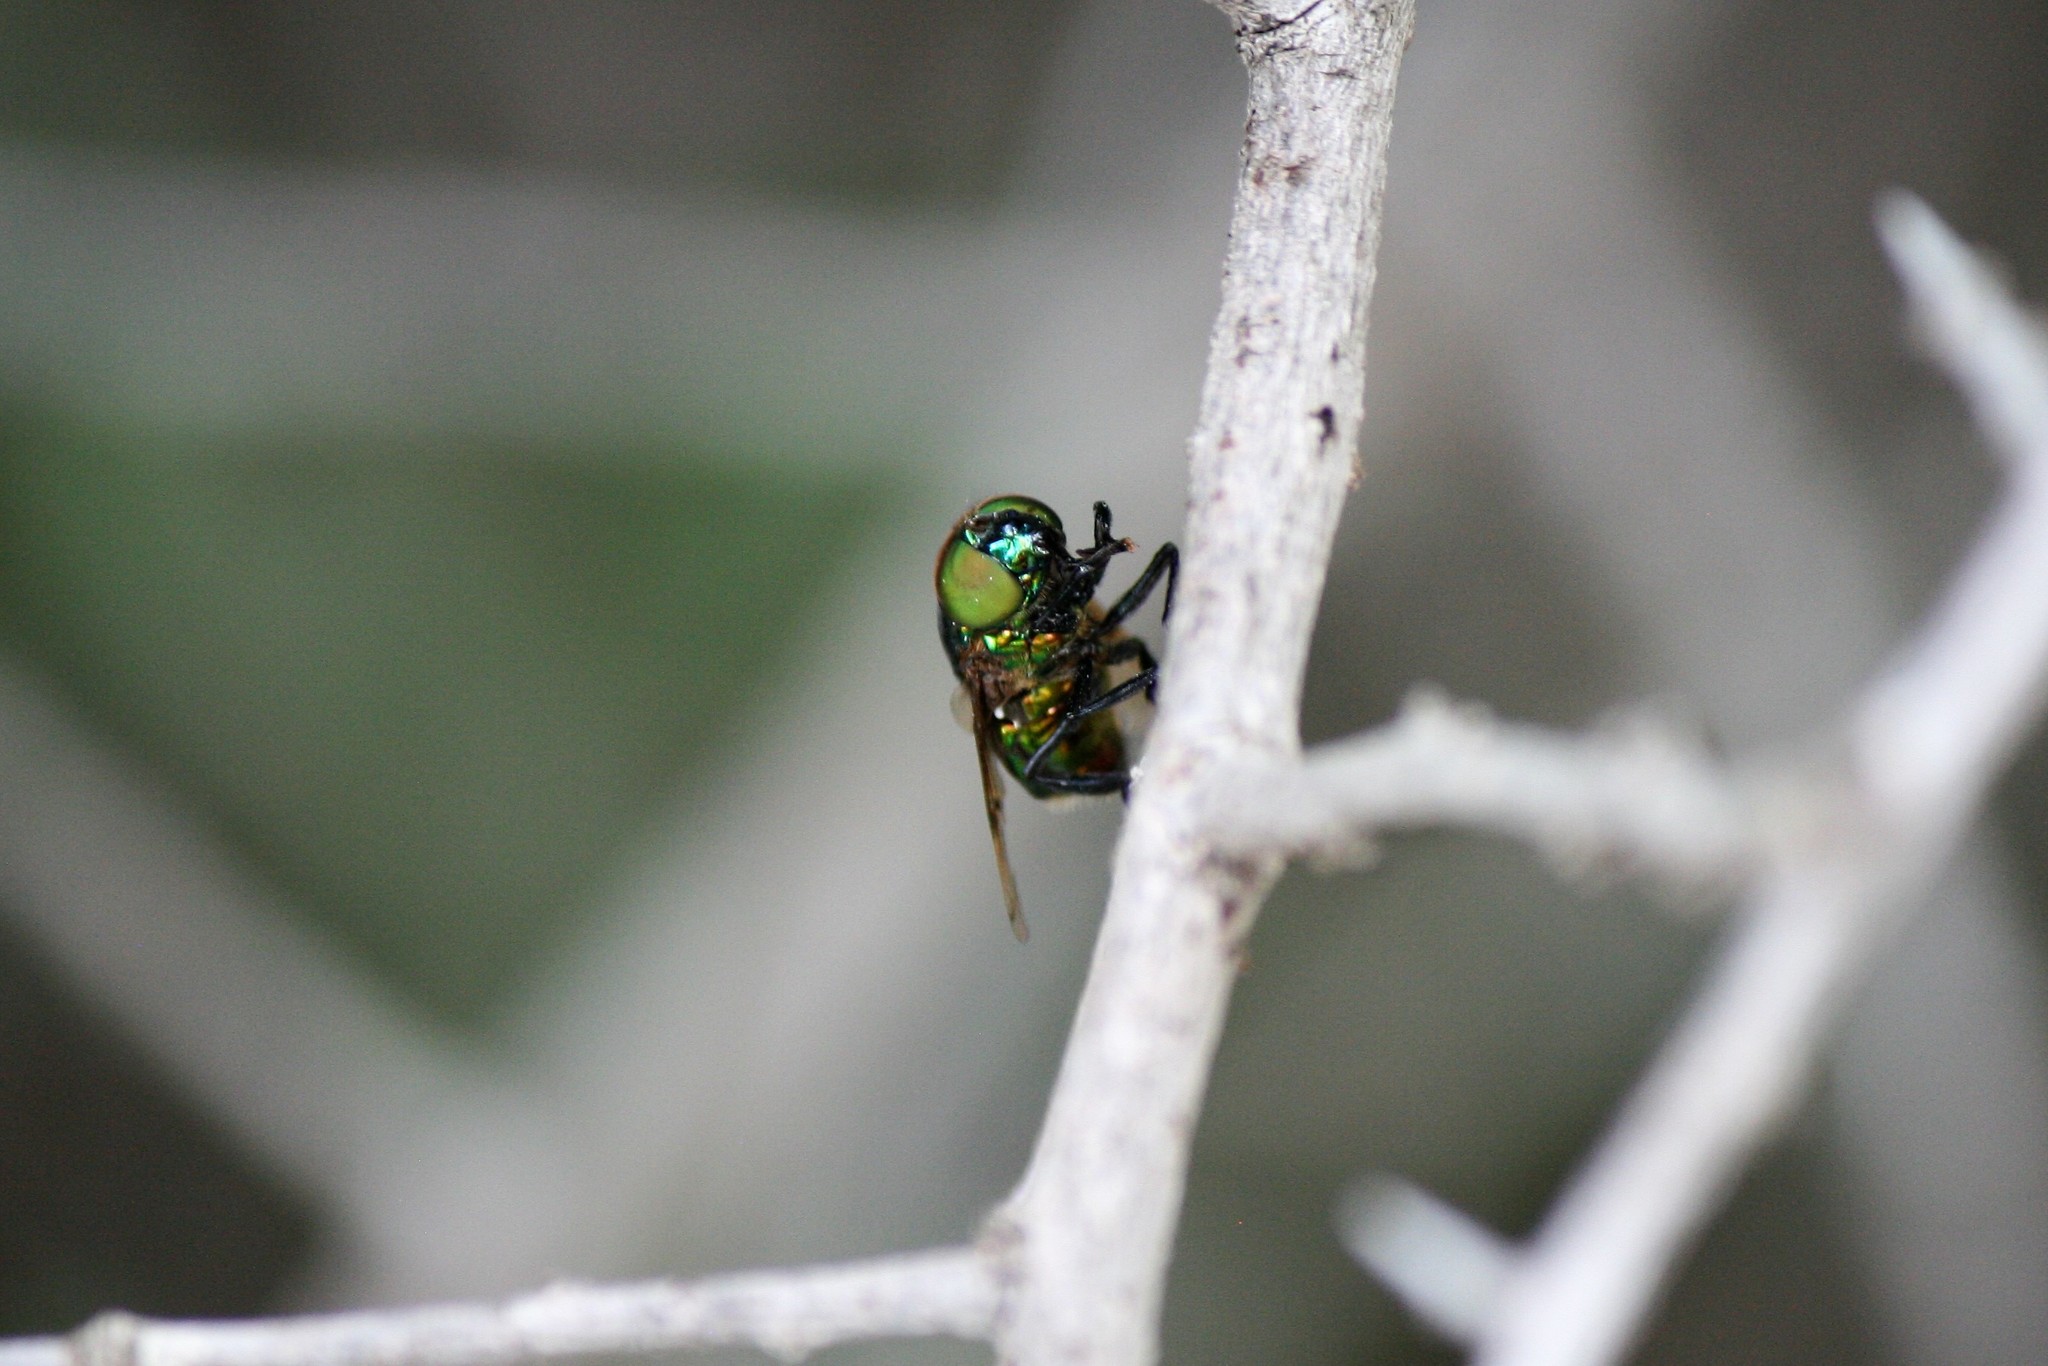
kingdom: Animalia
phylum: Arthropoda
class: Insecta
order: Diptera
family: Syrphidae
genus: Ornidia
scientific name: Ornidia obesa
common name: Syrphid fly
